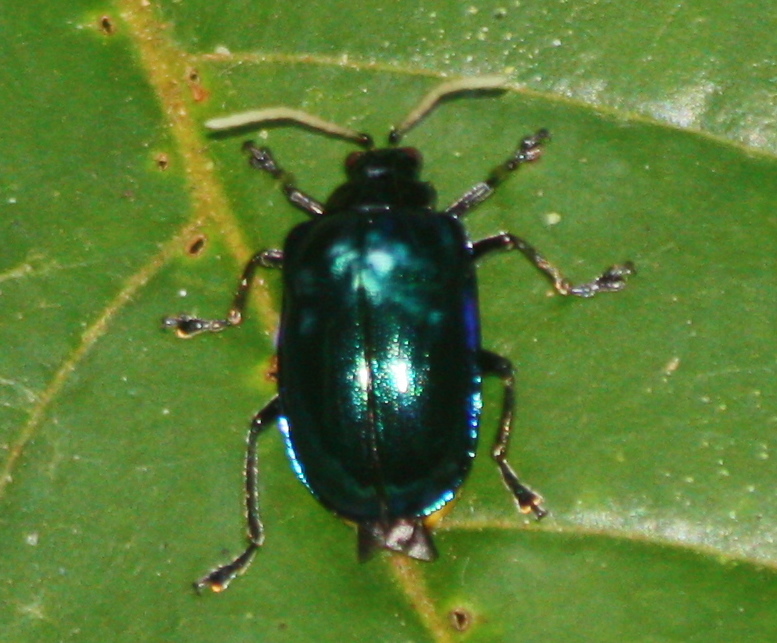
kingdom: Animalia
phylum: Arthropoda
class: Insecta
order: Coleoptera
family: Chrysomelidae
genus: Aplosonyx
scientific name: Aplosonyx
